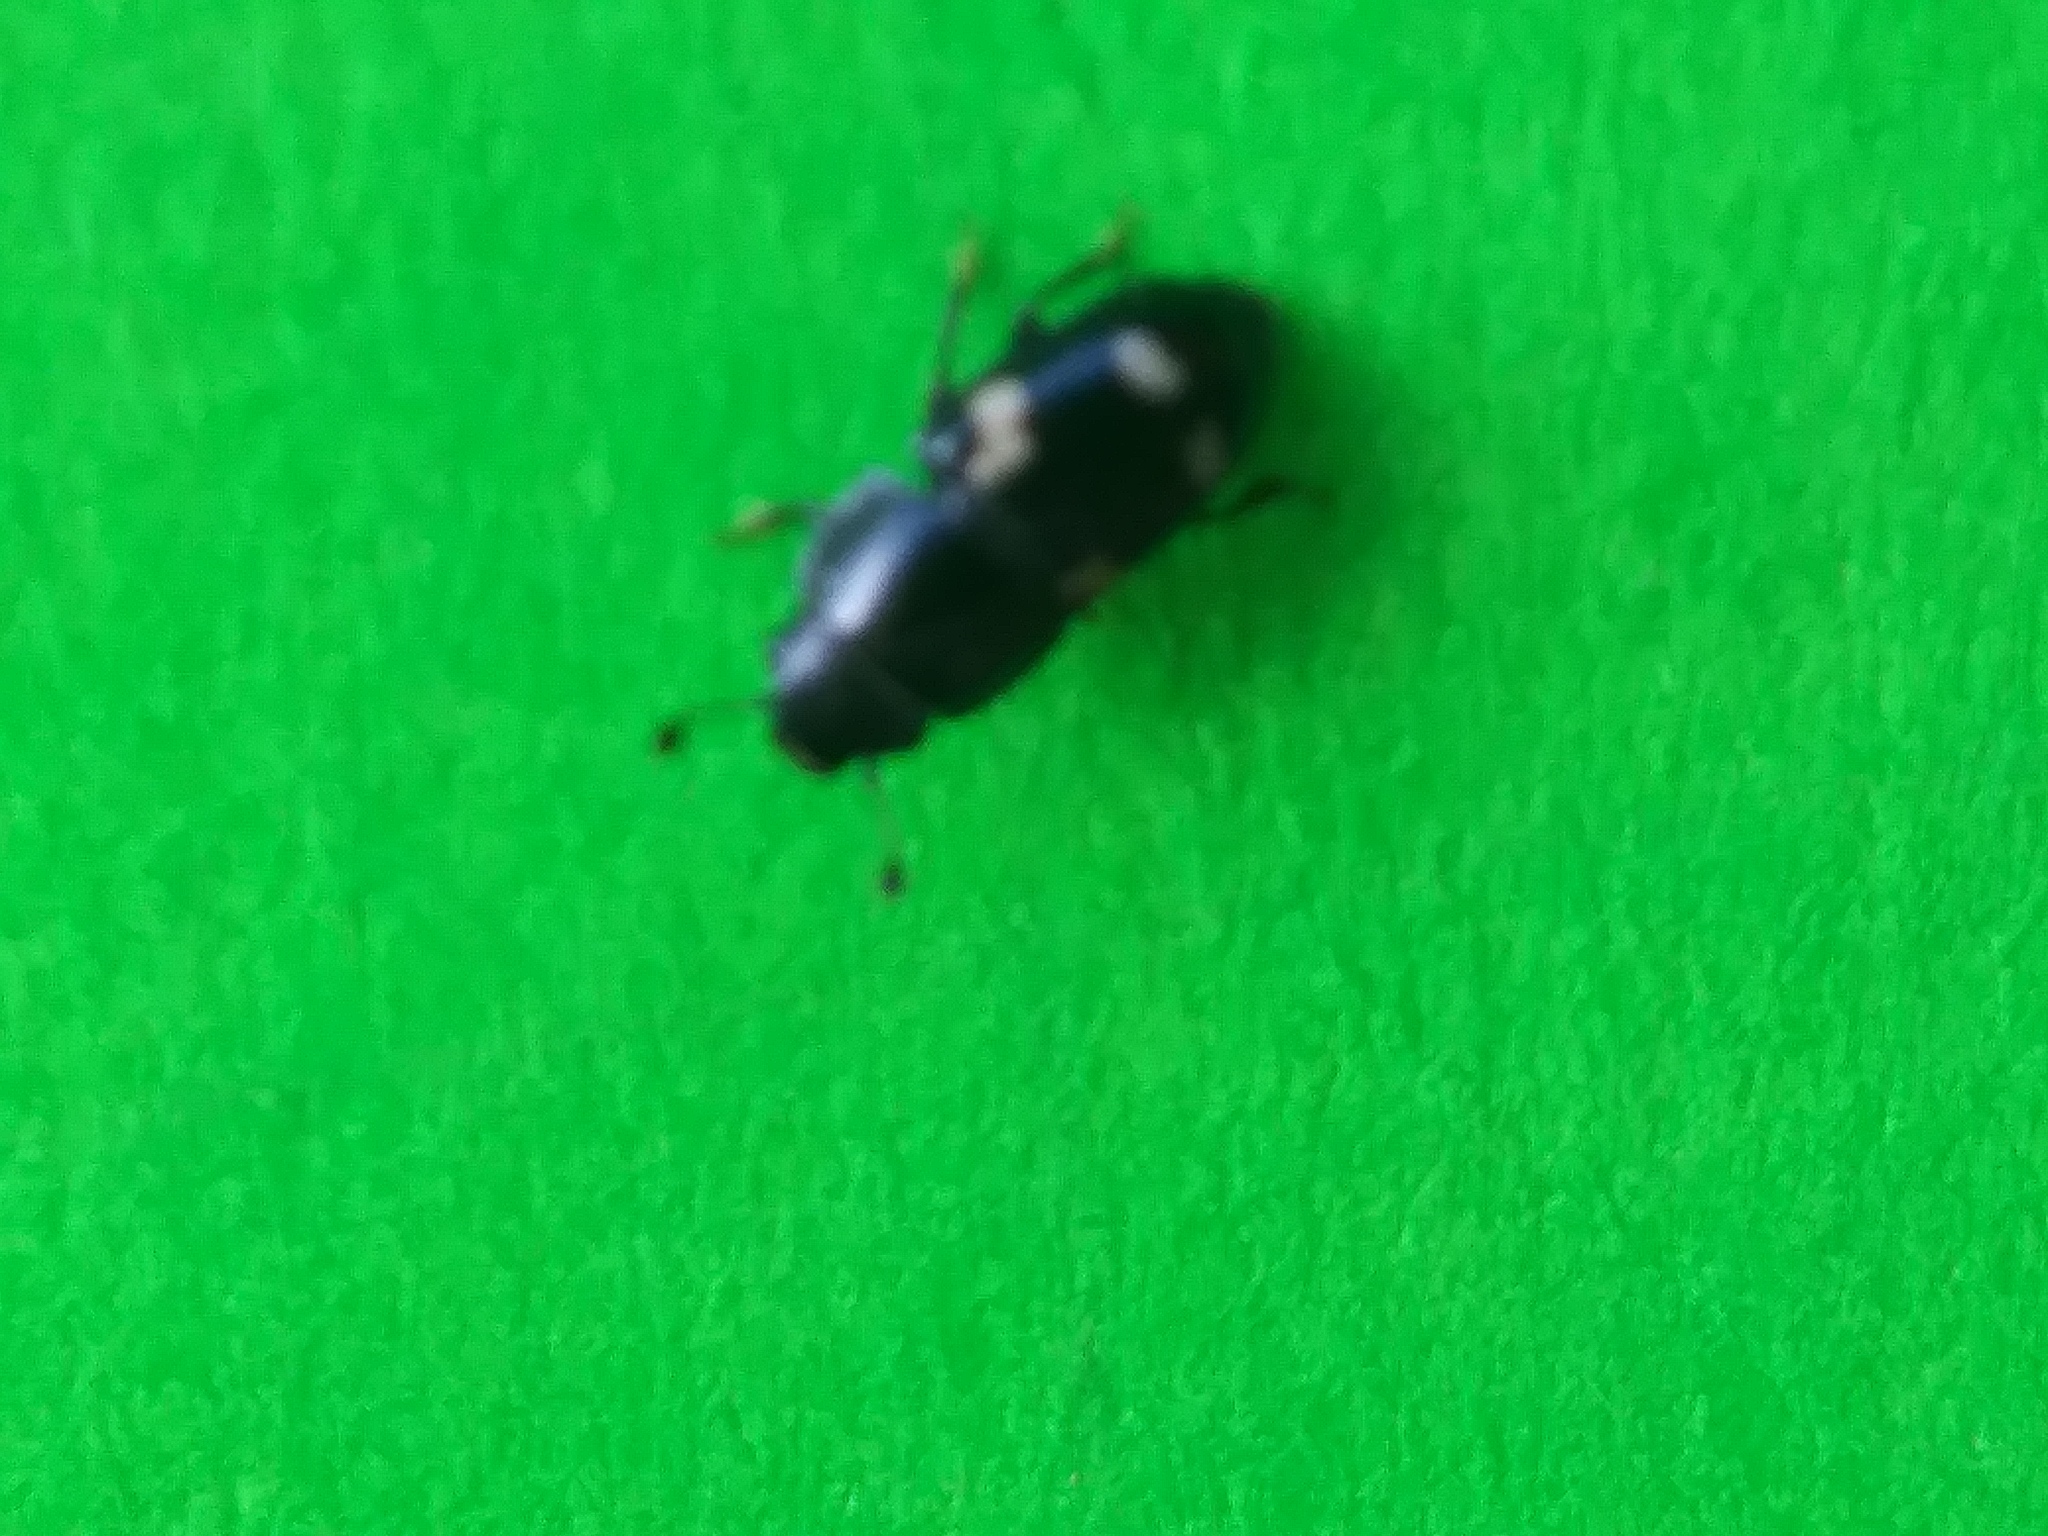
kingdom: Animalia
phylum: Arthropoda
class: Insecta
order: Coleoptera
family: Nitidulidae
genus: Glischrochilus
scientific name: Glischrochilus quadrisignatus
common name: Picnic beetle
